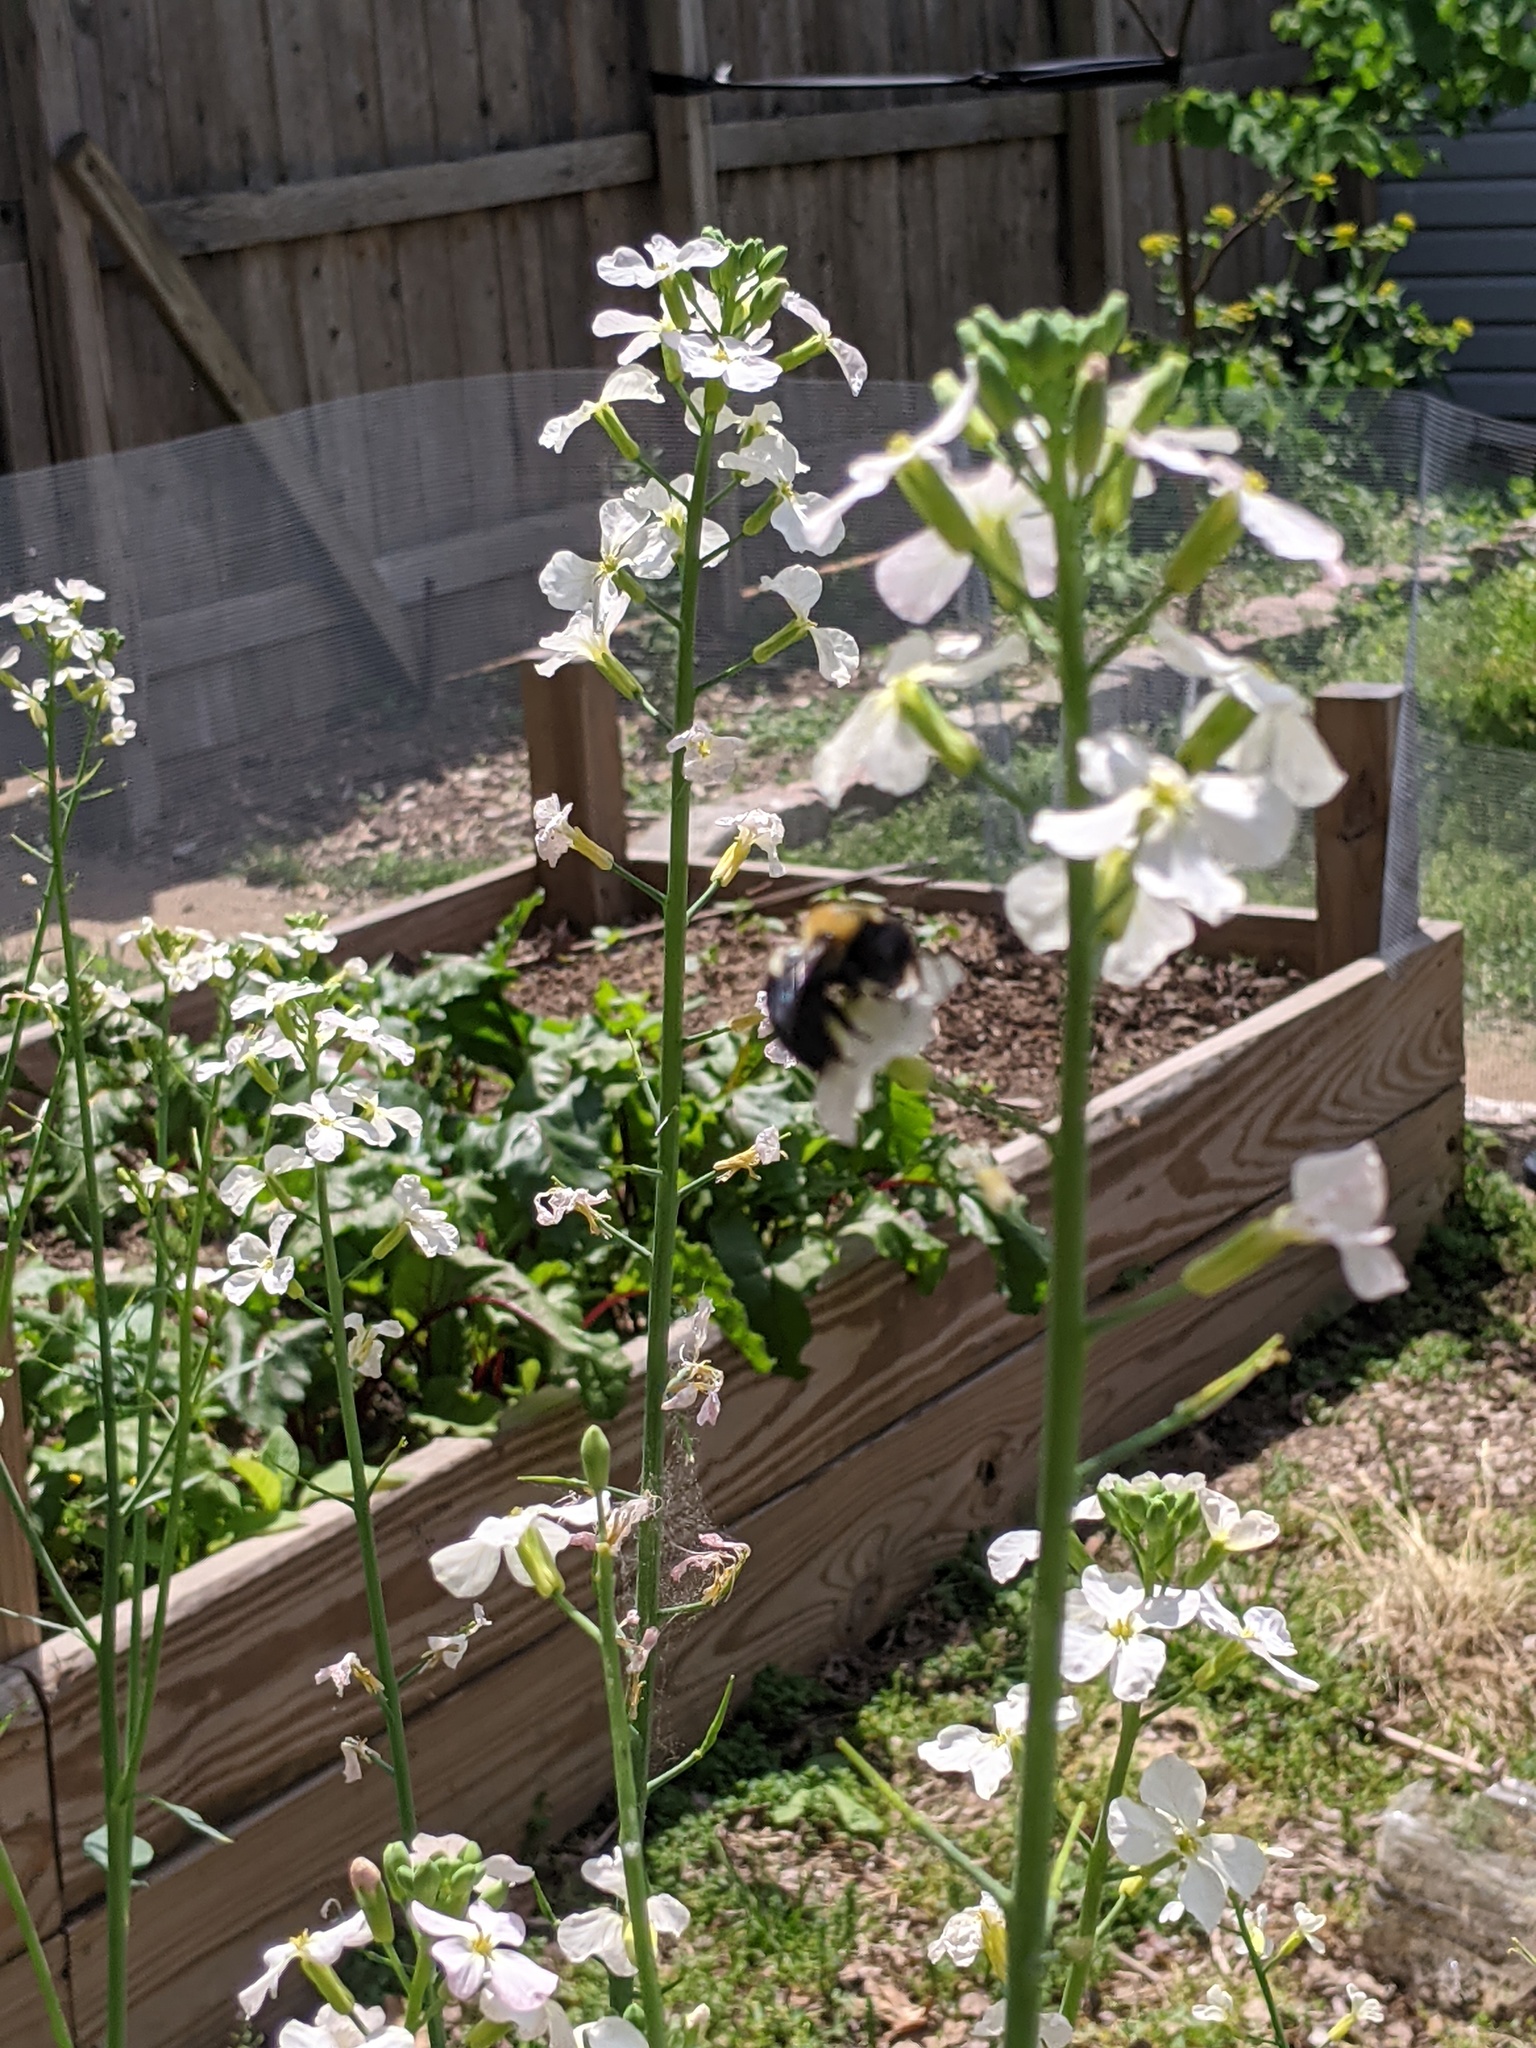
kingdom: Animalia
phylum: Arthropoda
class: Insecta
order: Hymenoptera
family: Apidae
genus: Xylocopa
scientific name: Xylocopa virginica
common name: Carpenter bee
